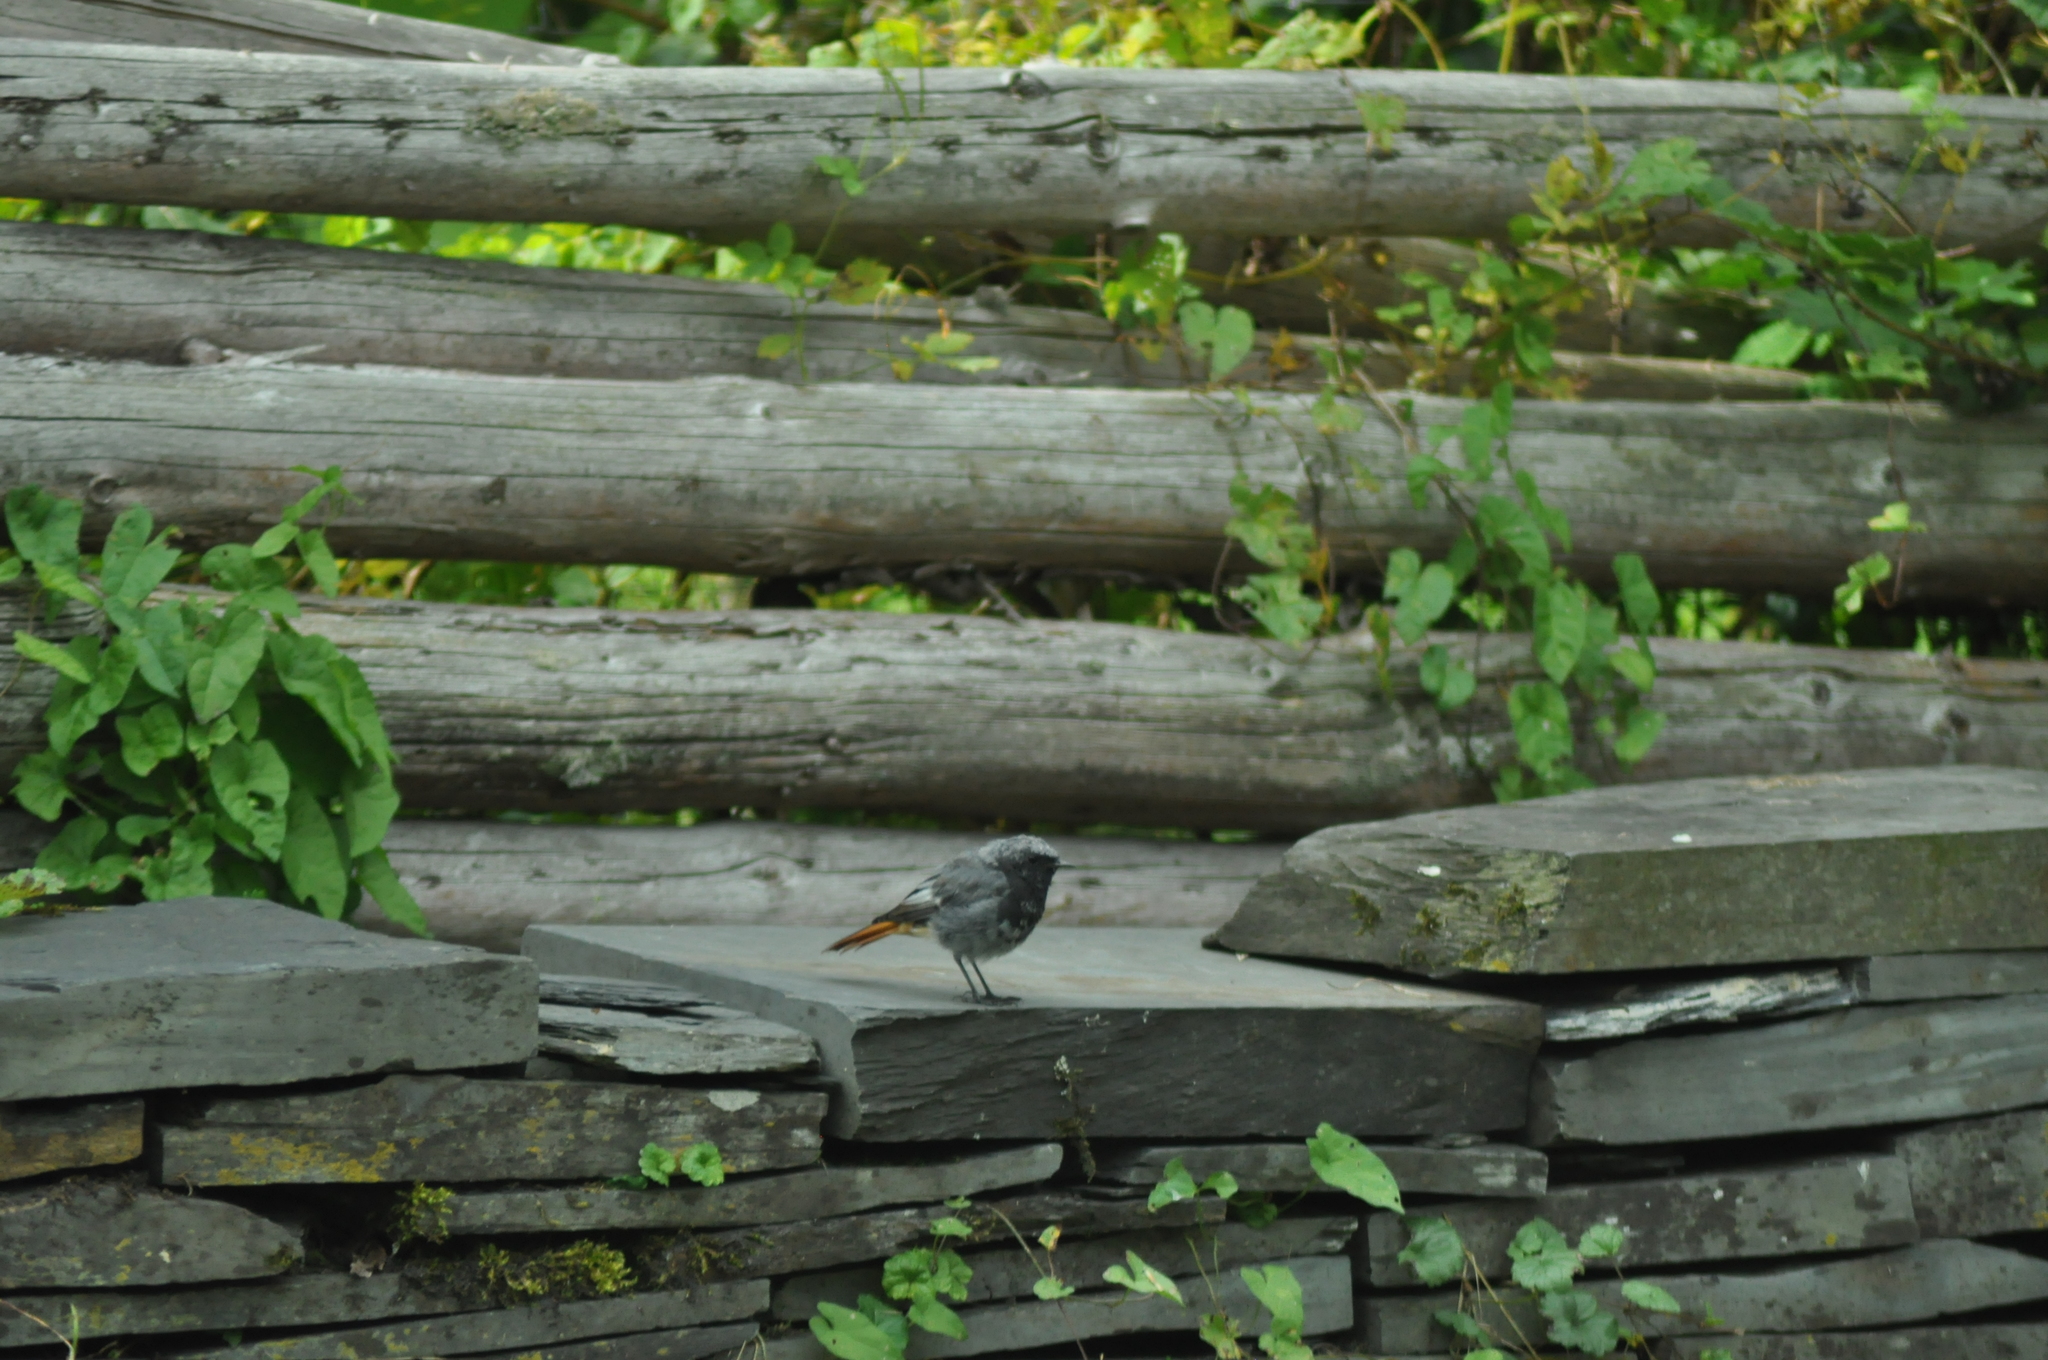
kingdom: Animalia
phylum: Chordata
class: Aves
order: Passeriformes
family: Muscicapidae
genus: Phoenicurus
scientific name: Phoenicurus ochruros
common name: Black redstart
